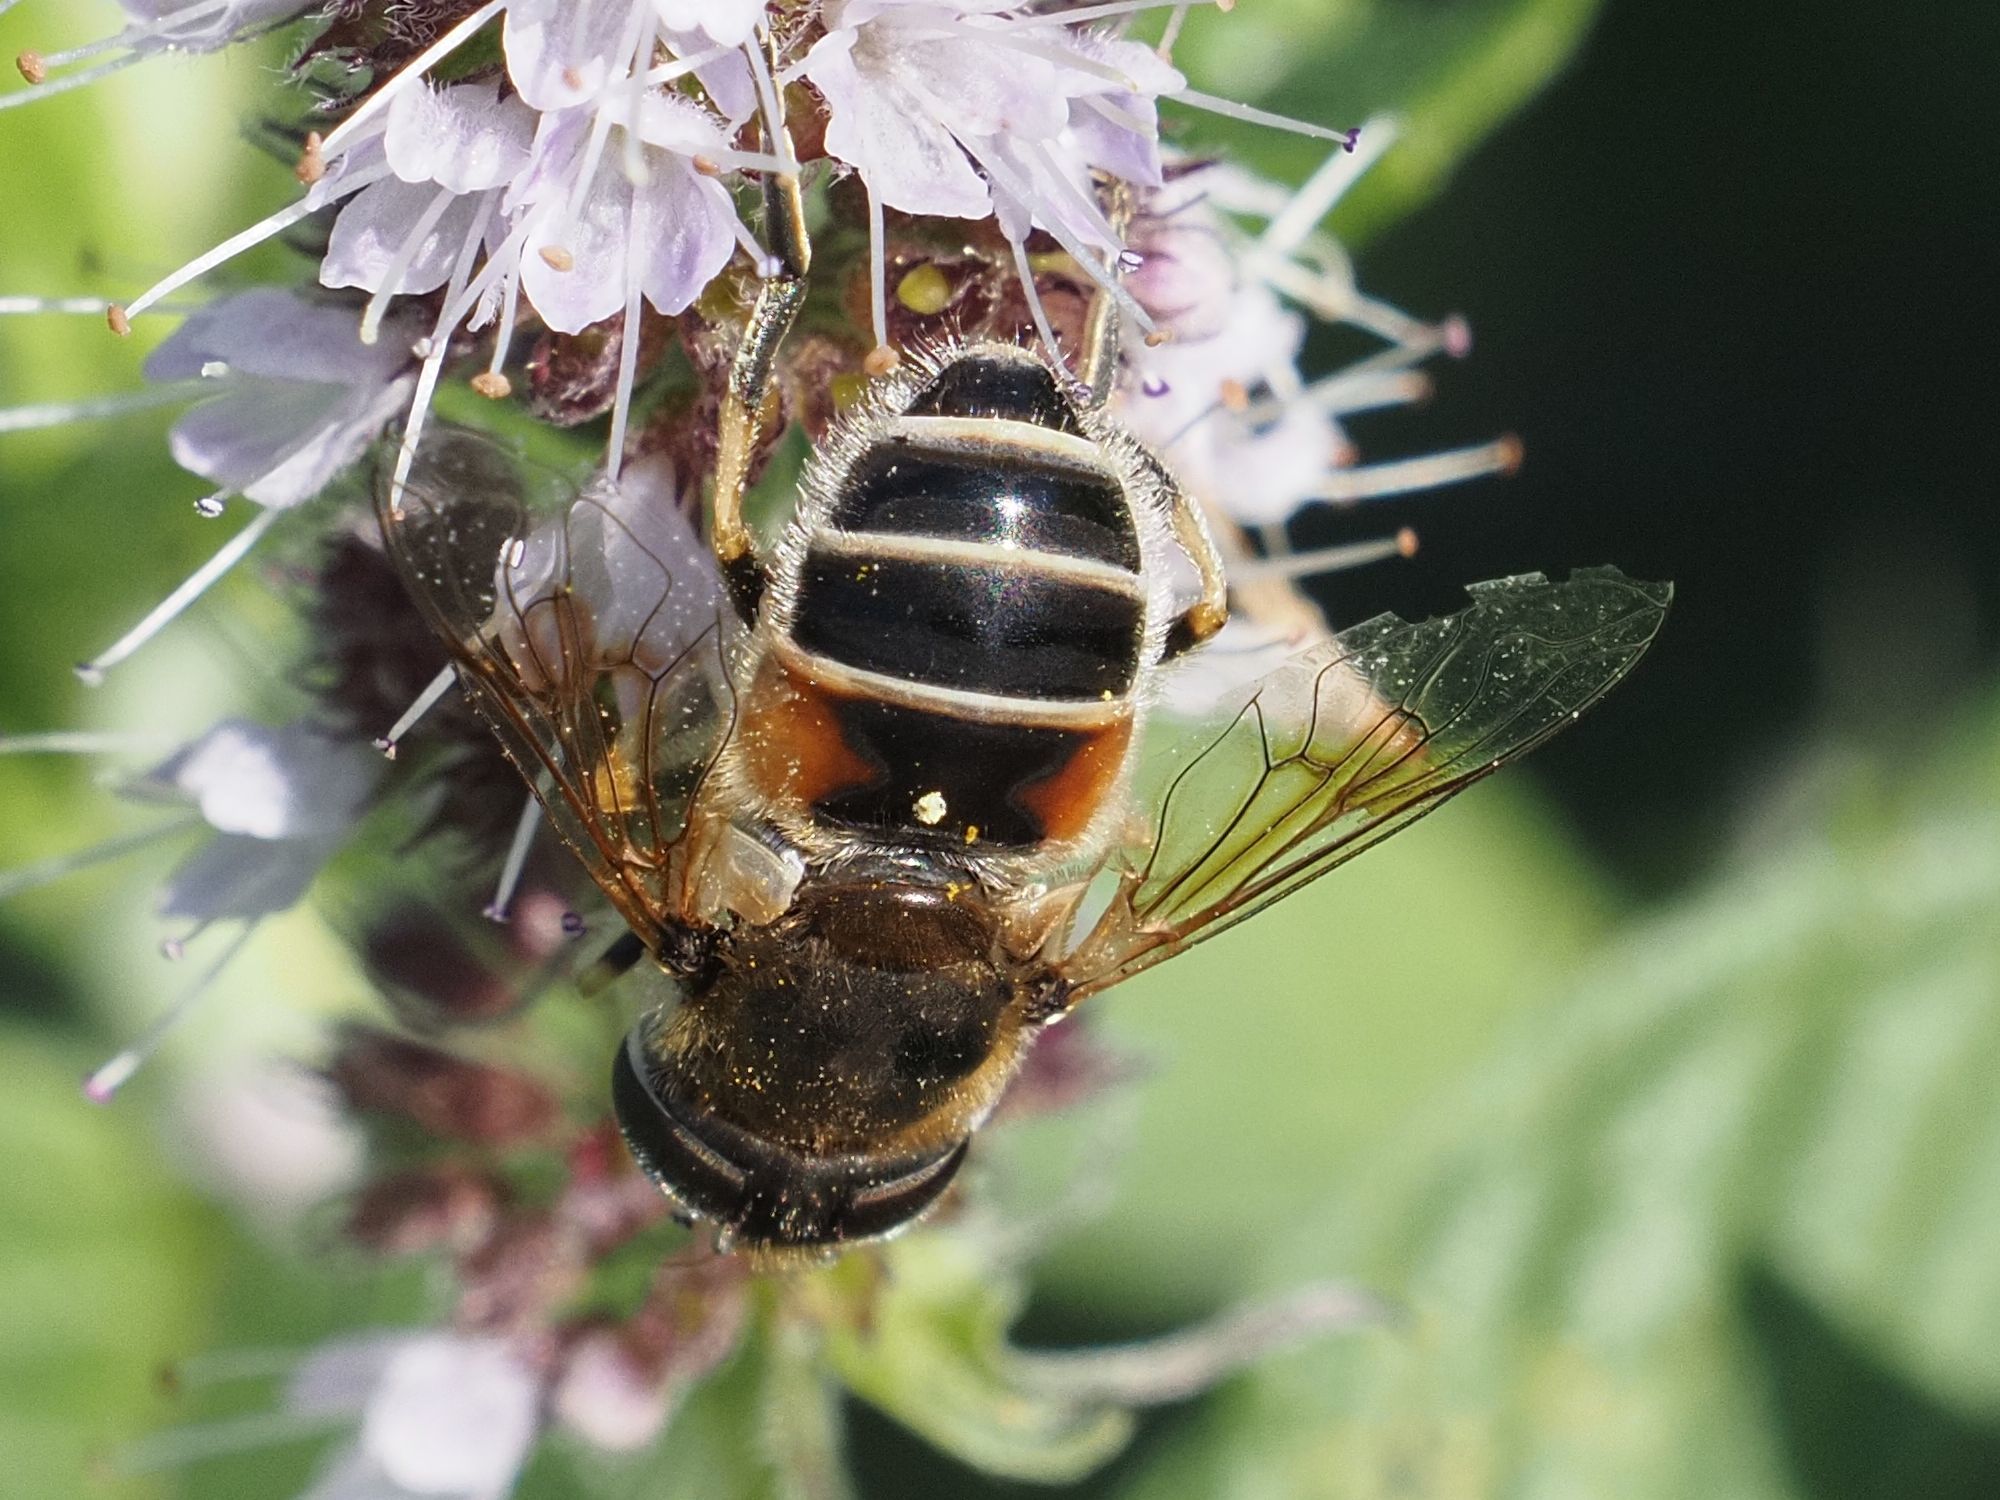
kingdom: Animalia
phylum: Arthropoda
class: Insecta
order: Diptera
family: Syrphidae
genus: Eristalis
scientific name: Eristalis arbustorum
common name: Hover fly
